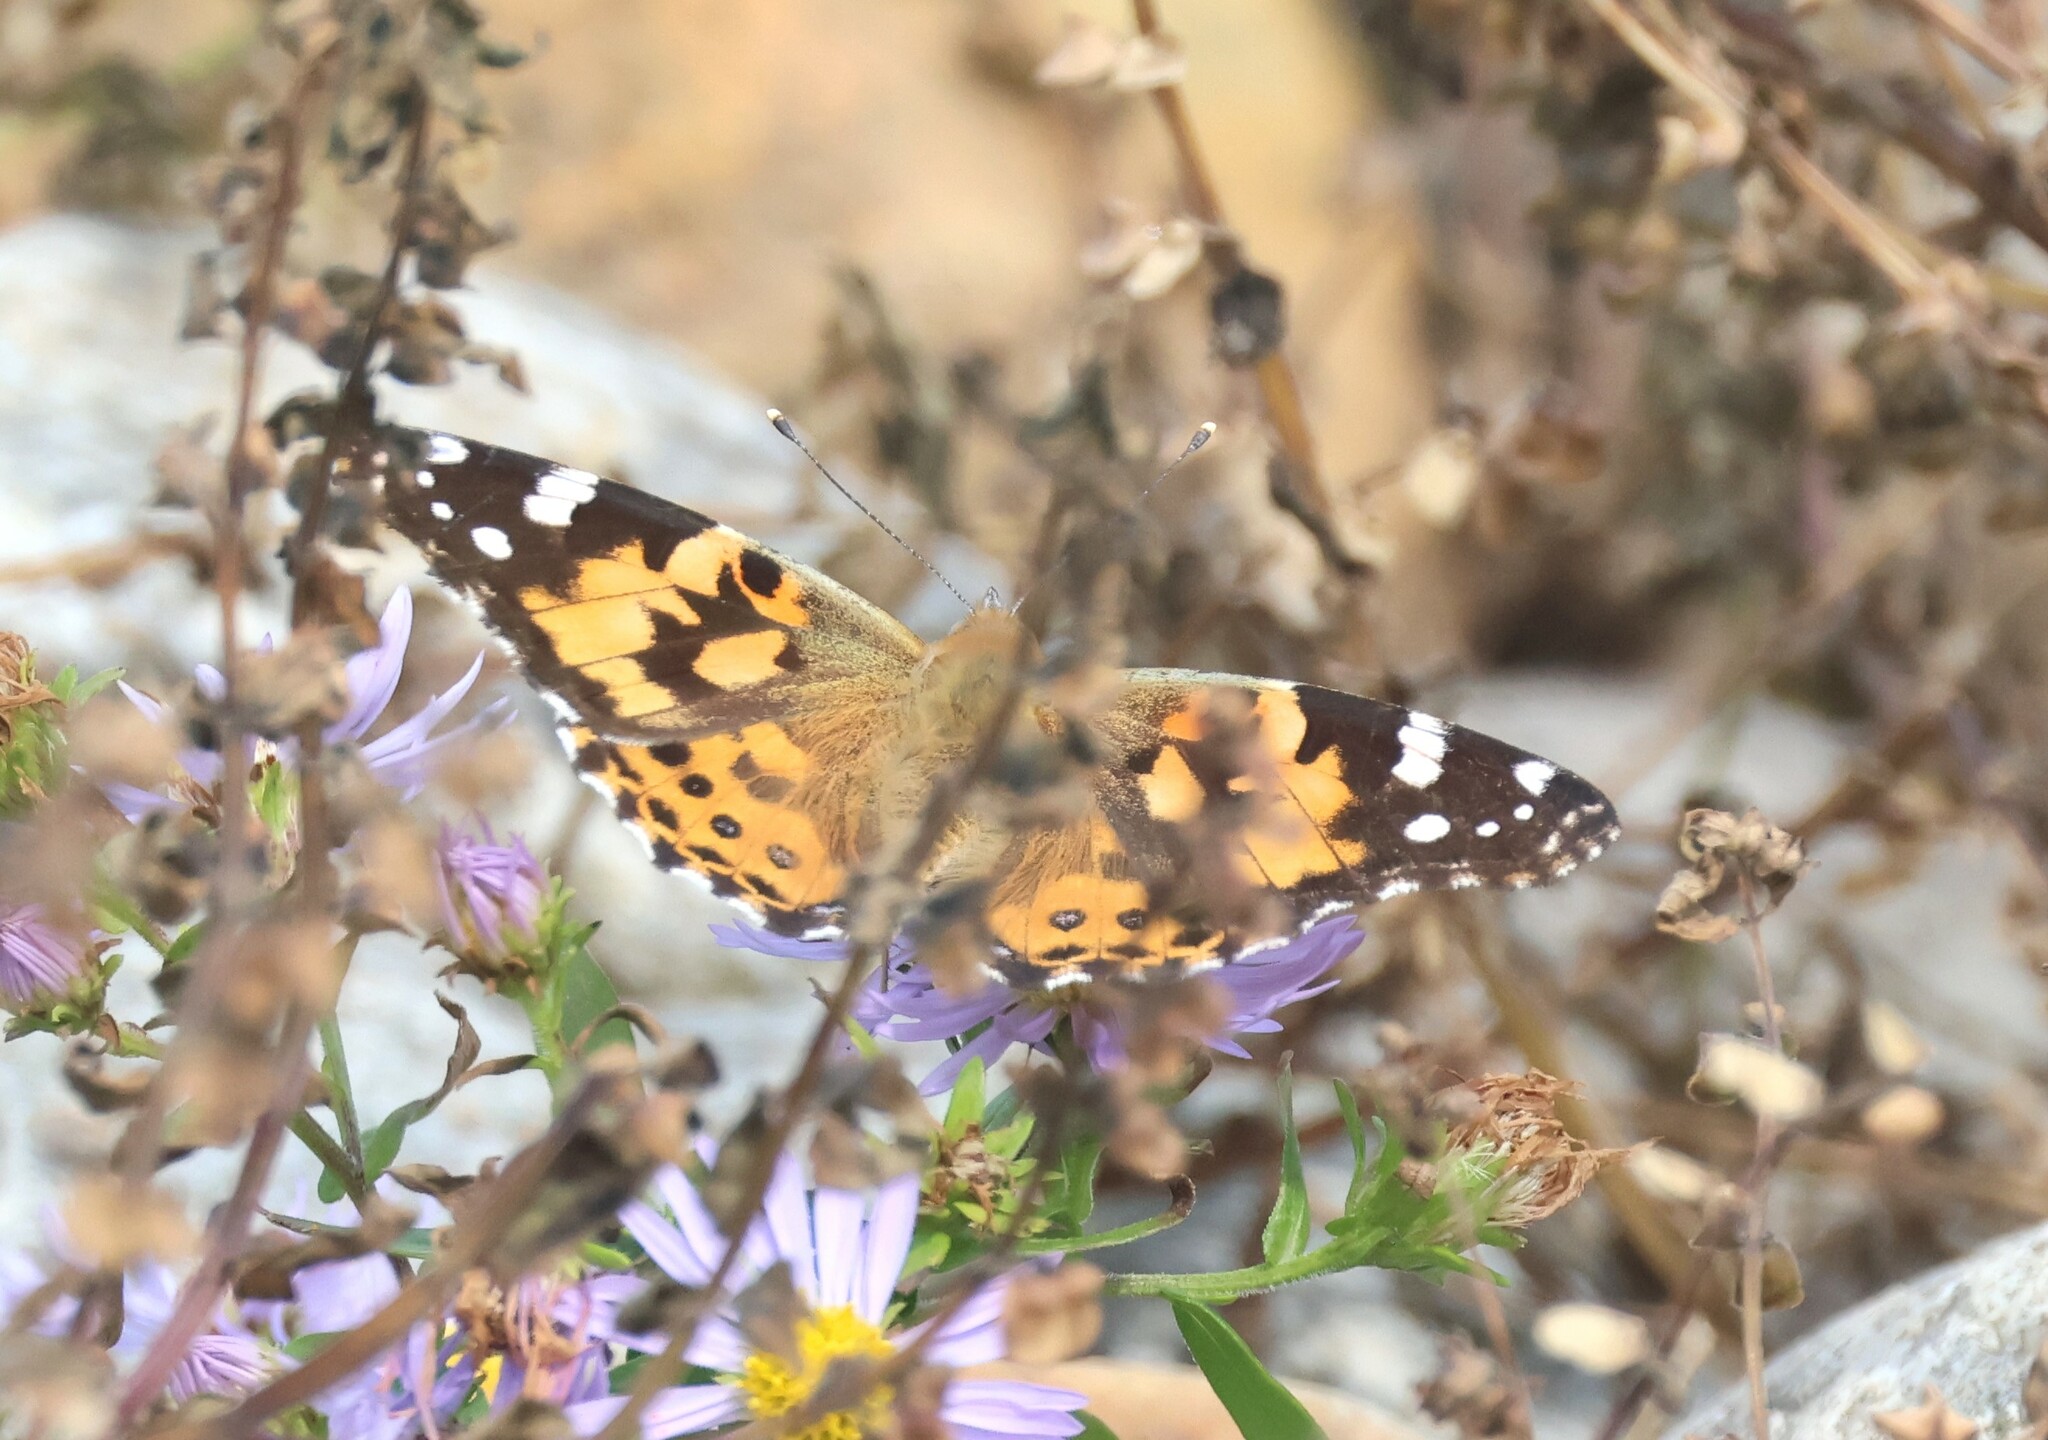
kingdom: Animalia
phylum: Arthropoda
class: Insecta
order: Lepidoptera
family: Nymphalidae
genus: Vanessa
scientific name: Vanessa cardui
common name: Painted lady
